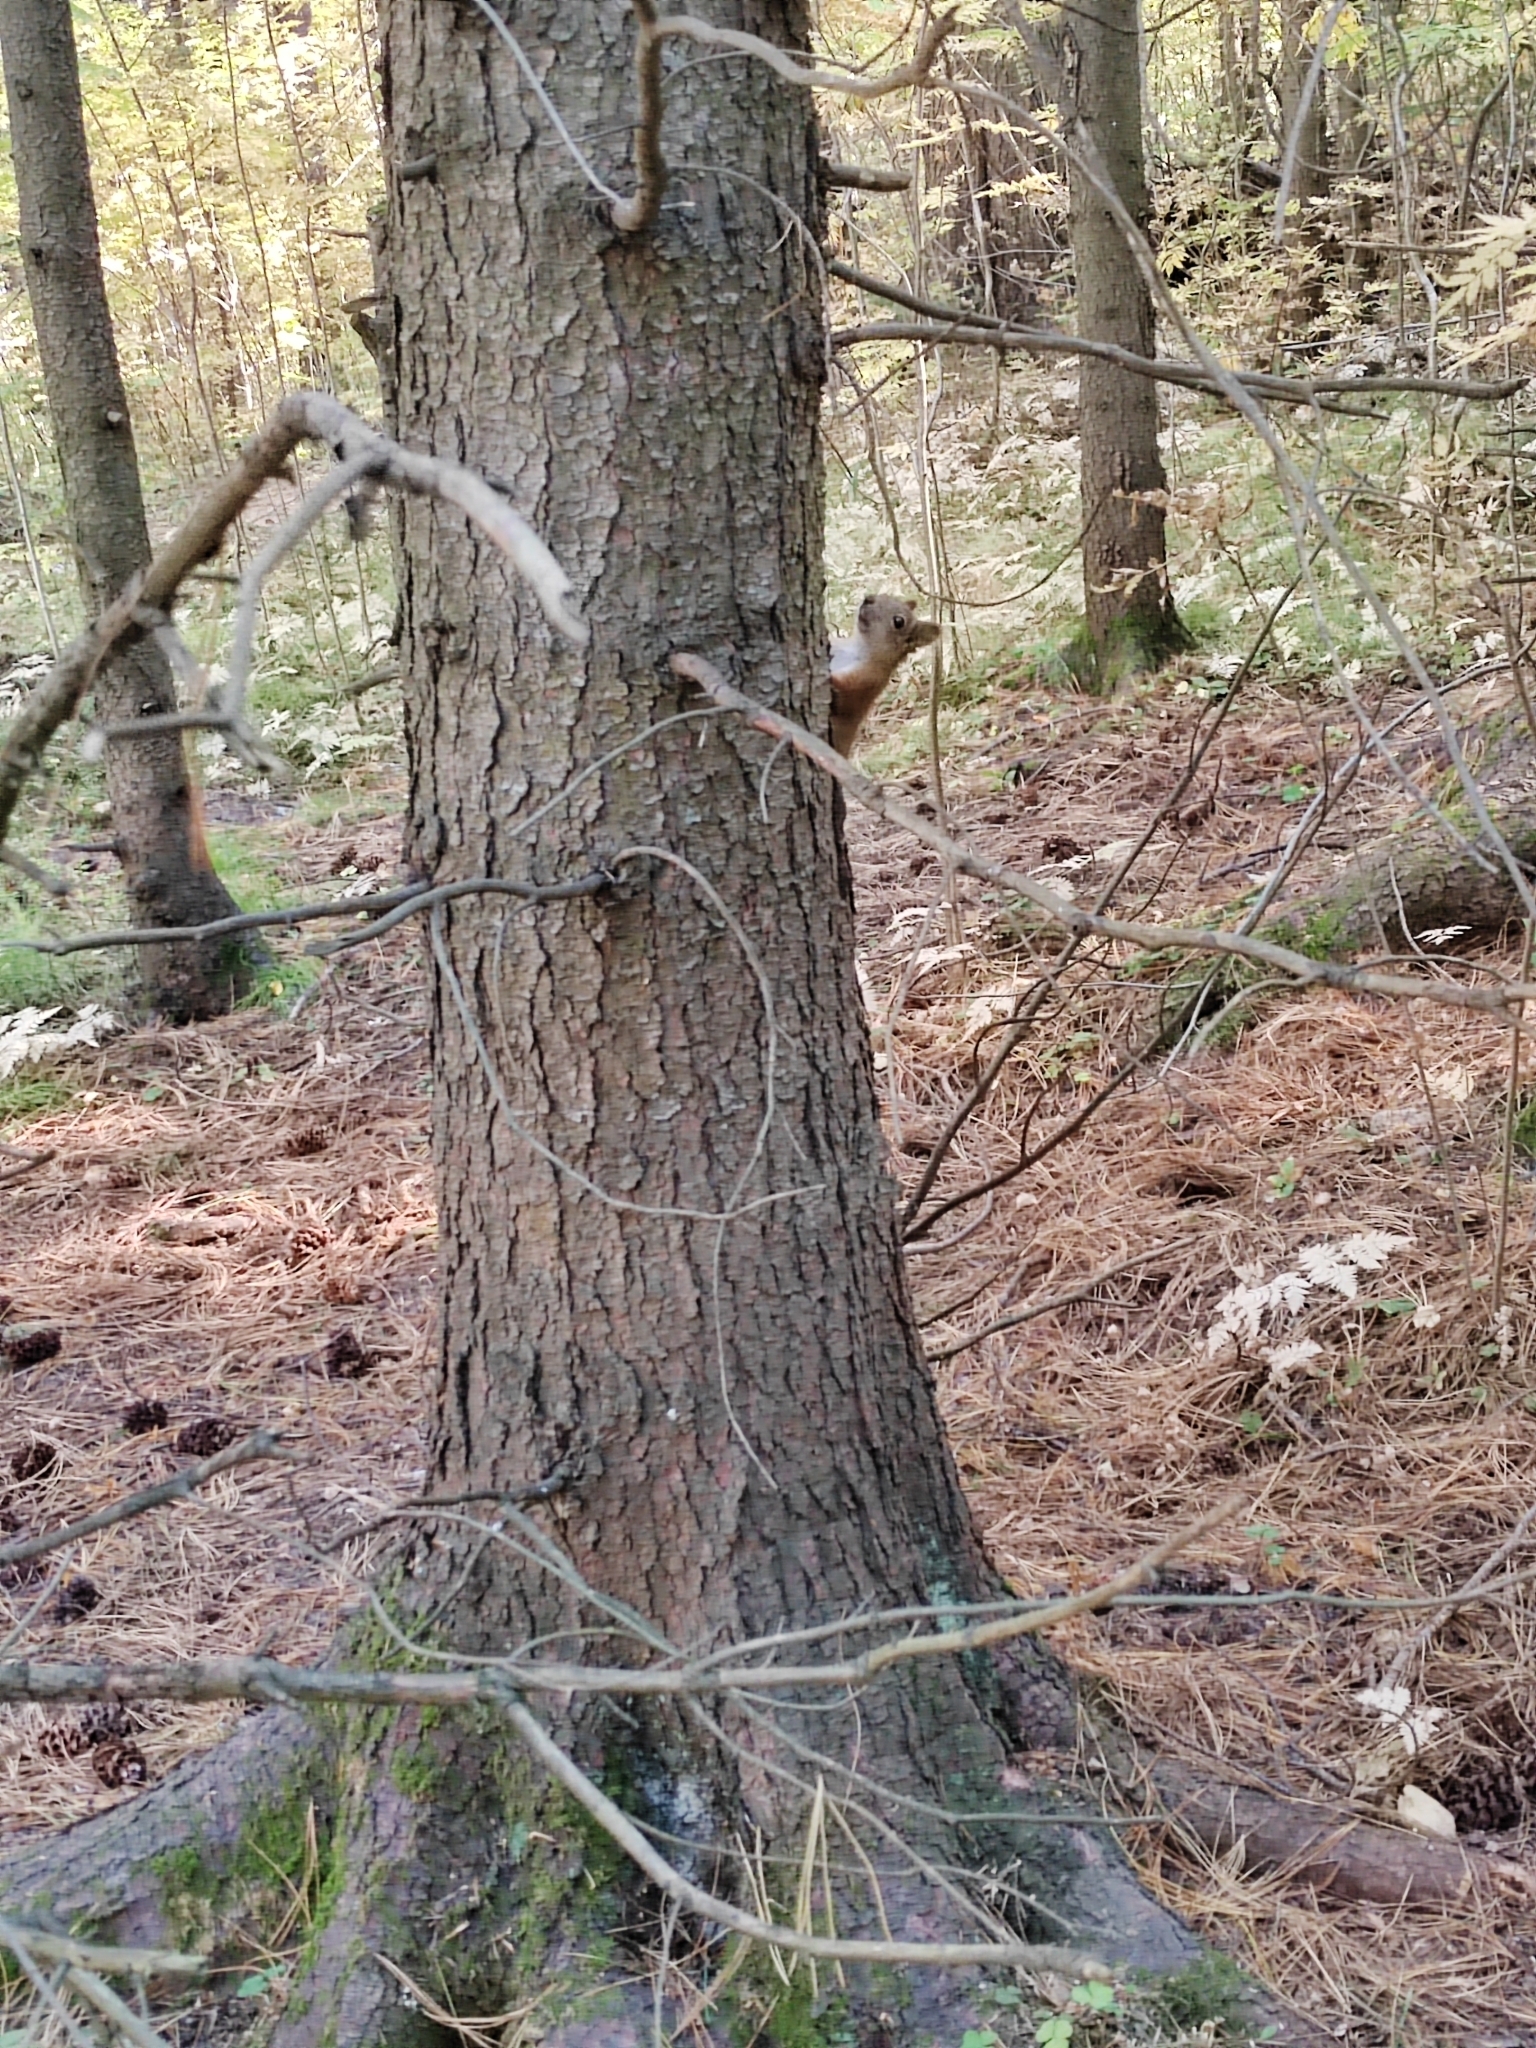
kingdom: Animalia
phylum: Chordata
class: Mammalia
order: Rodentia
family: Sciuridae
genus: Sciurus
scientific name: Sciurus vulgaris
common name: Eurasian red squirrel
